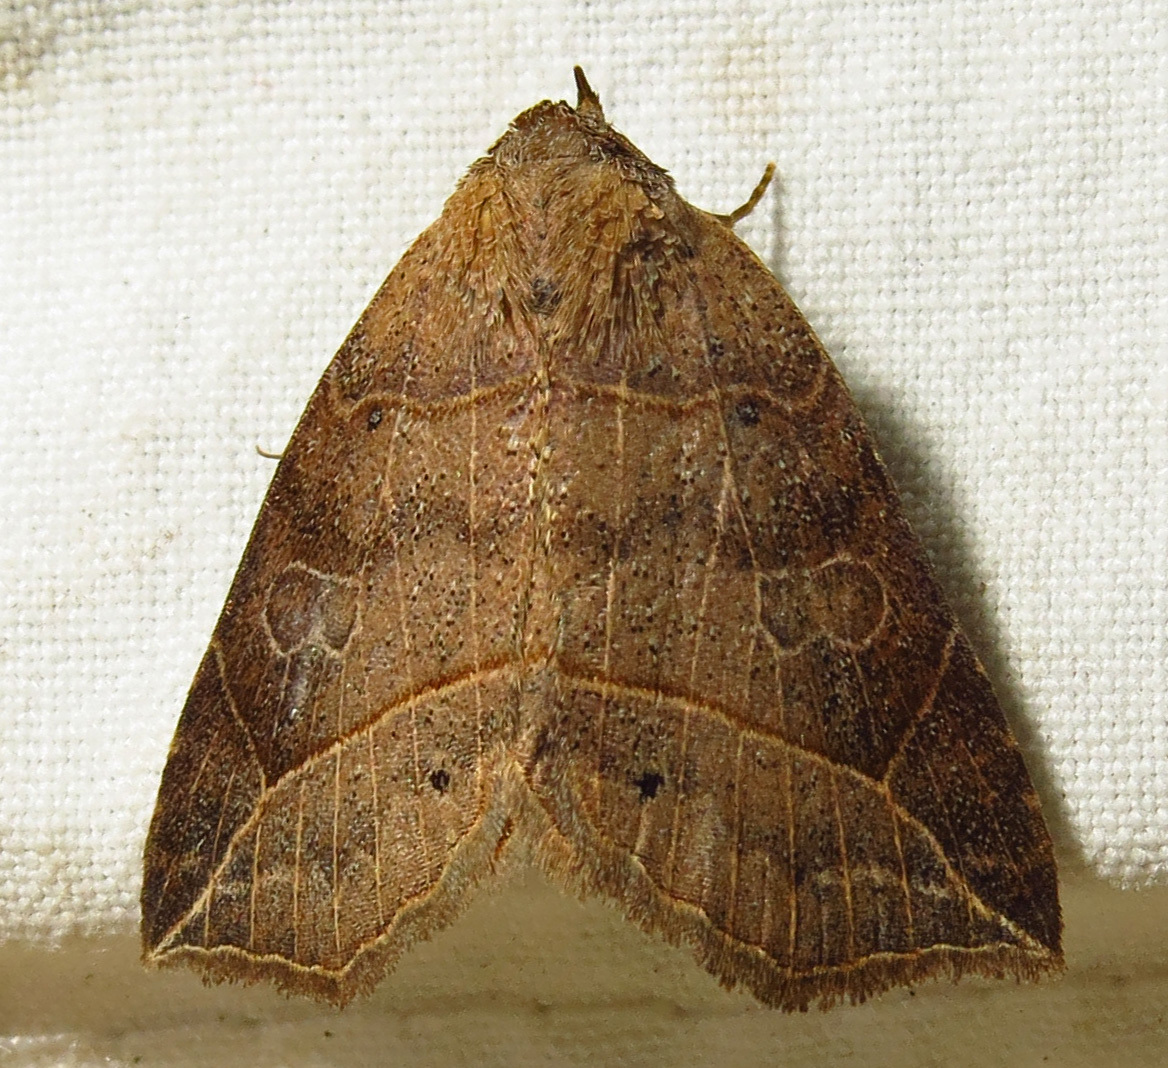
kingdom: Animalia
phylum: Arthropoda
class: Insecta
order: Lepidoptera
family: Erebidae
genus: Isogona
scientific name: Isogona tenuis
